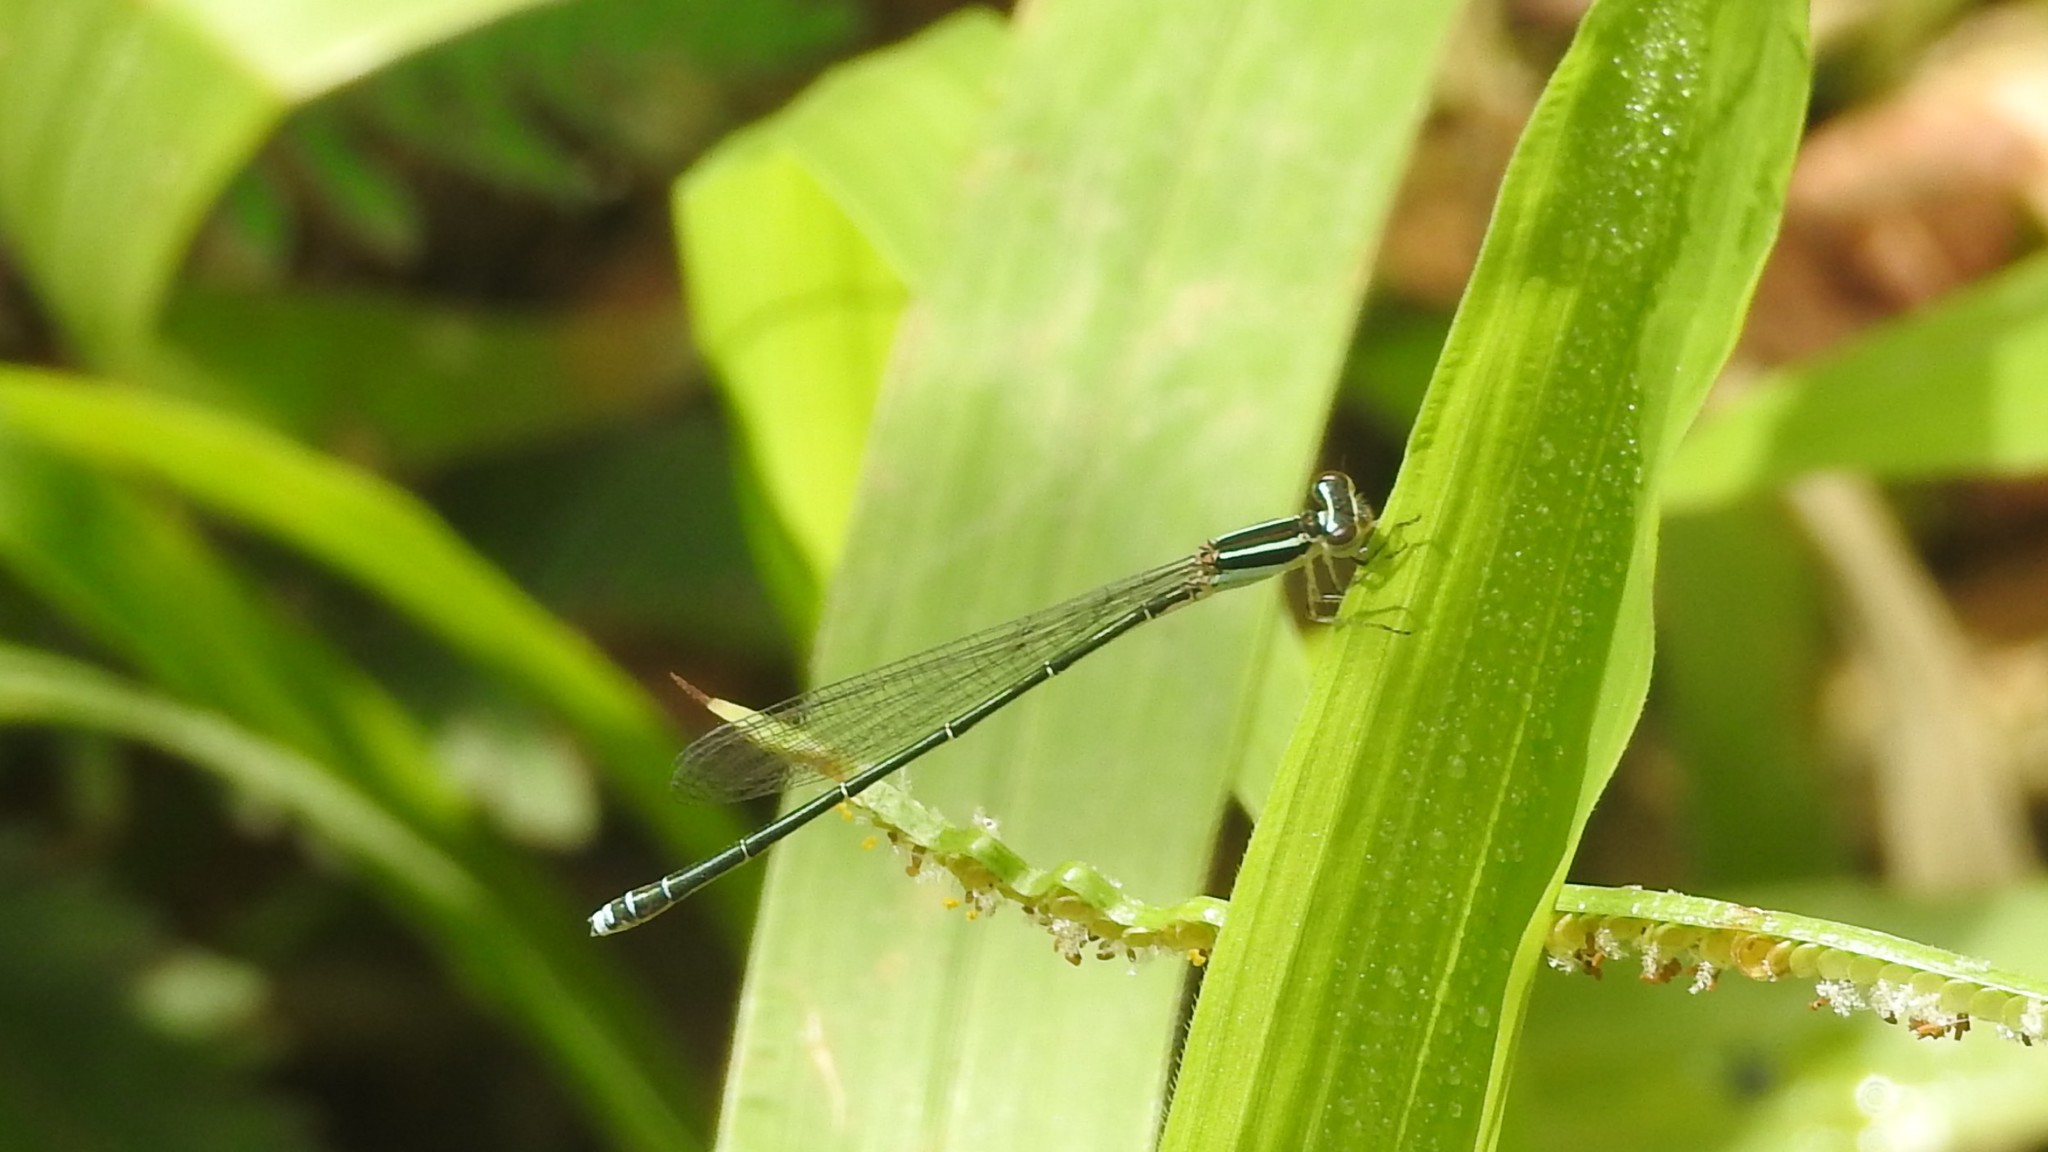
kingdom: Animalia
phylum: Arthropoda
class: Insecta
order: Odonata
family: Coenagrionidae
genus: Aciagrion
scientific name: Aciagrion occidentale
